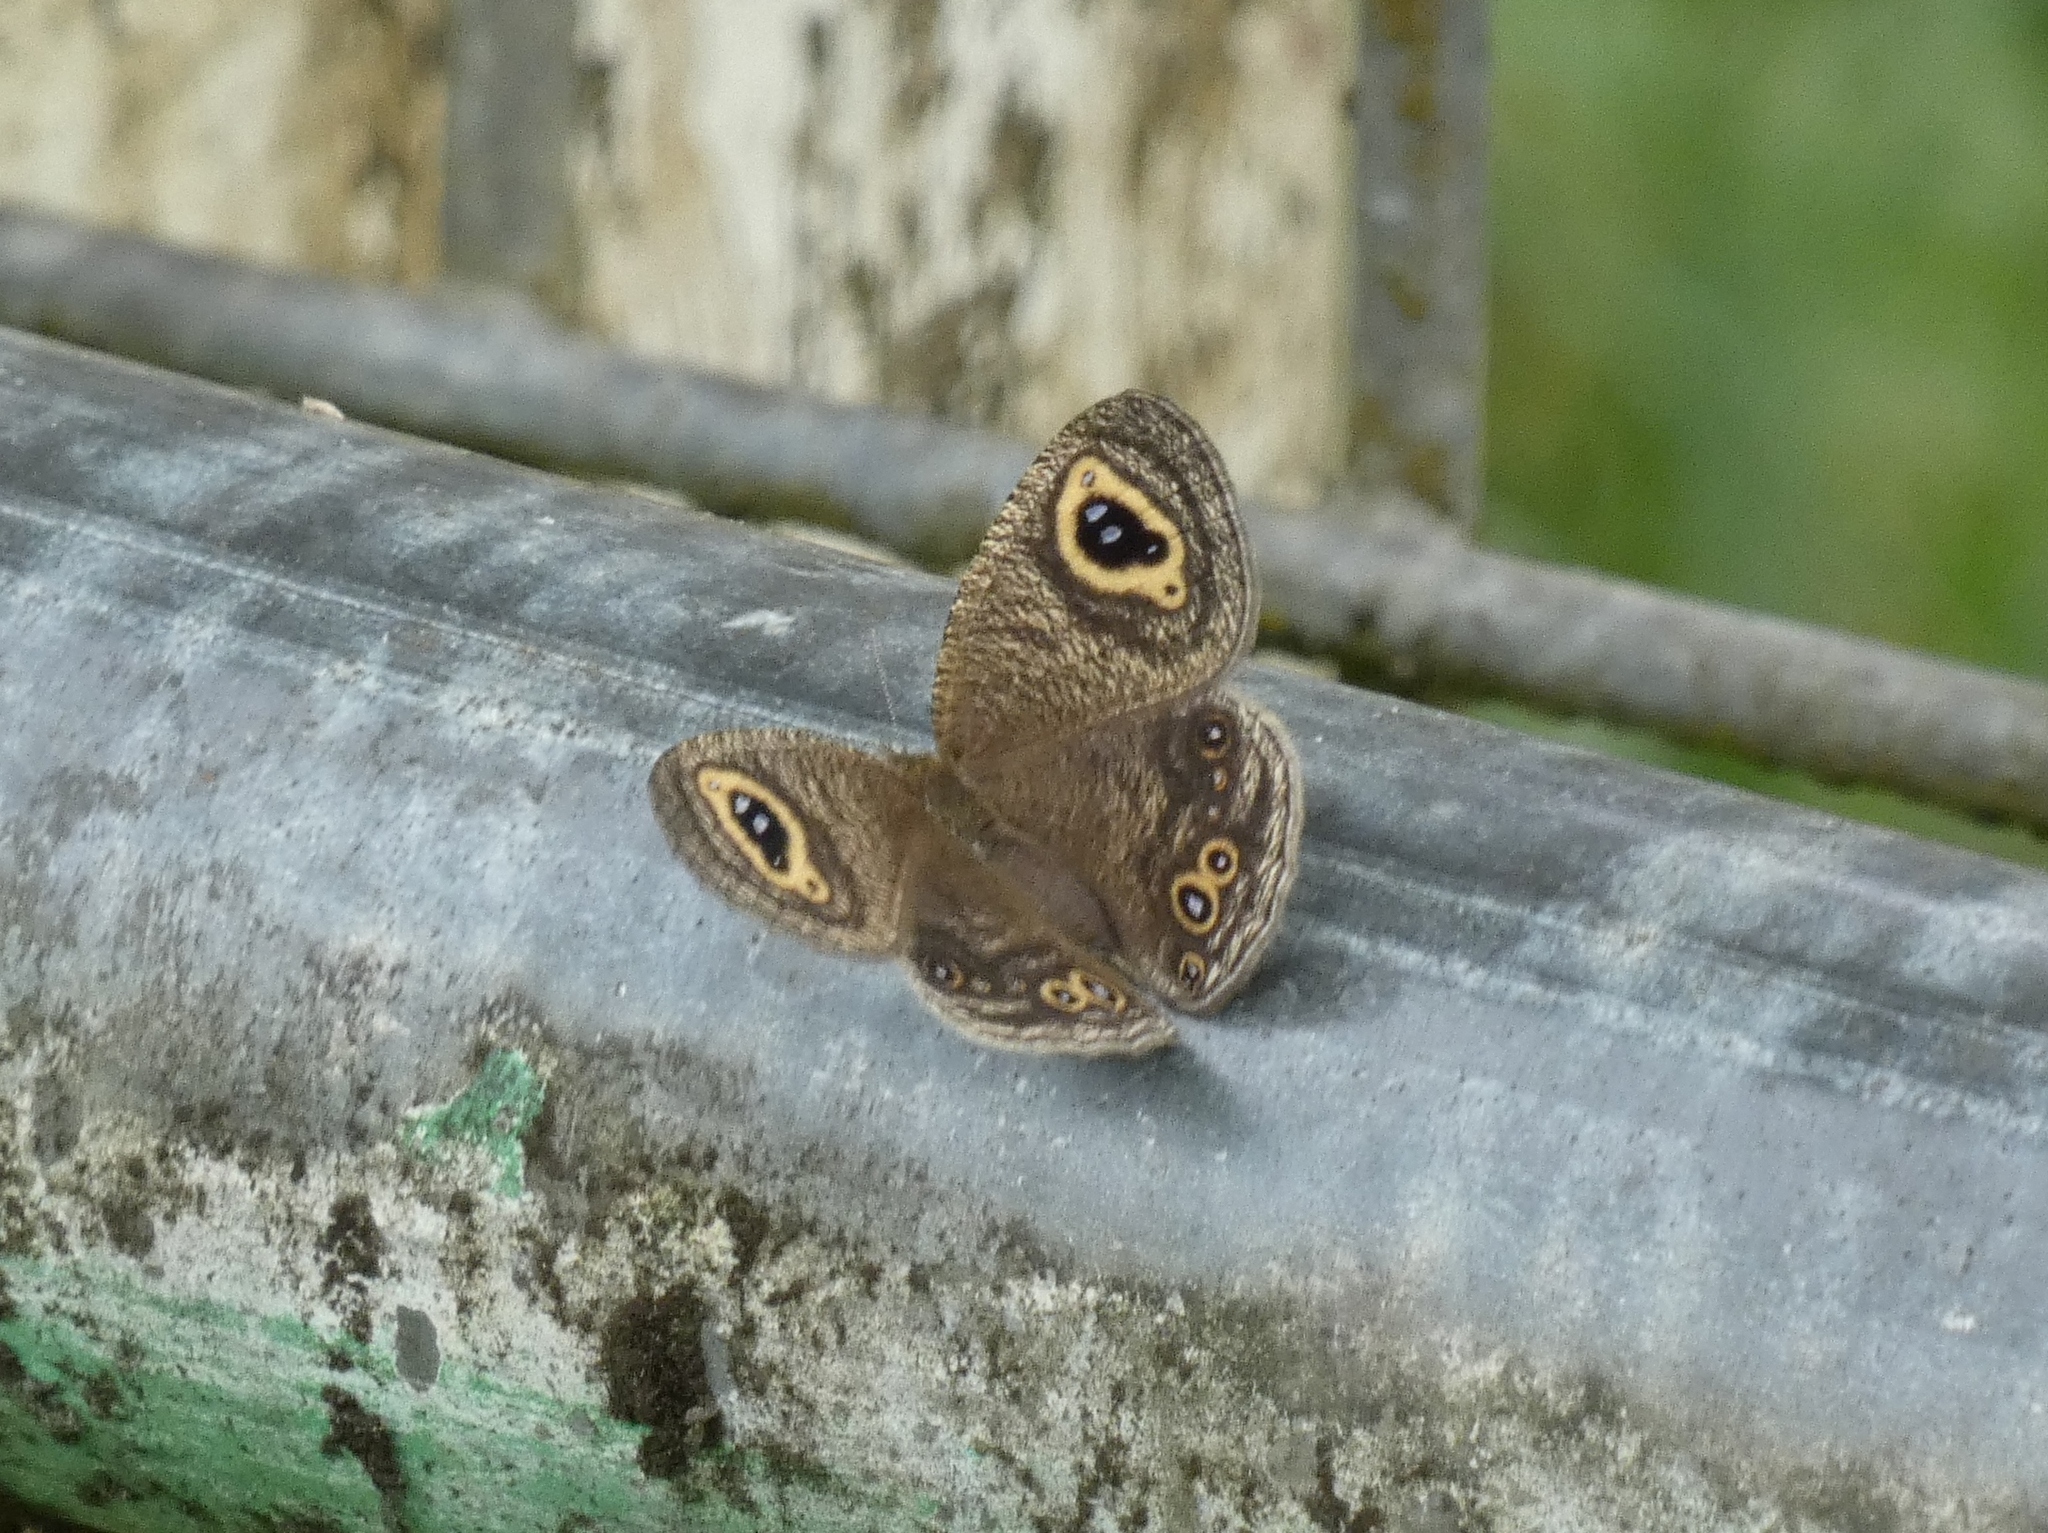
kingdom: Animalia
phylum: Arthropoda
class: Insecta
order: Lepidoptera
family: Nymphalidae
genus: Ypthima
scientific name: Ypthima doleta
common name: Common ringlet
